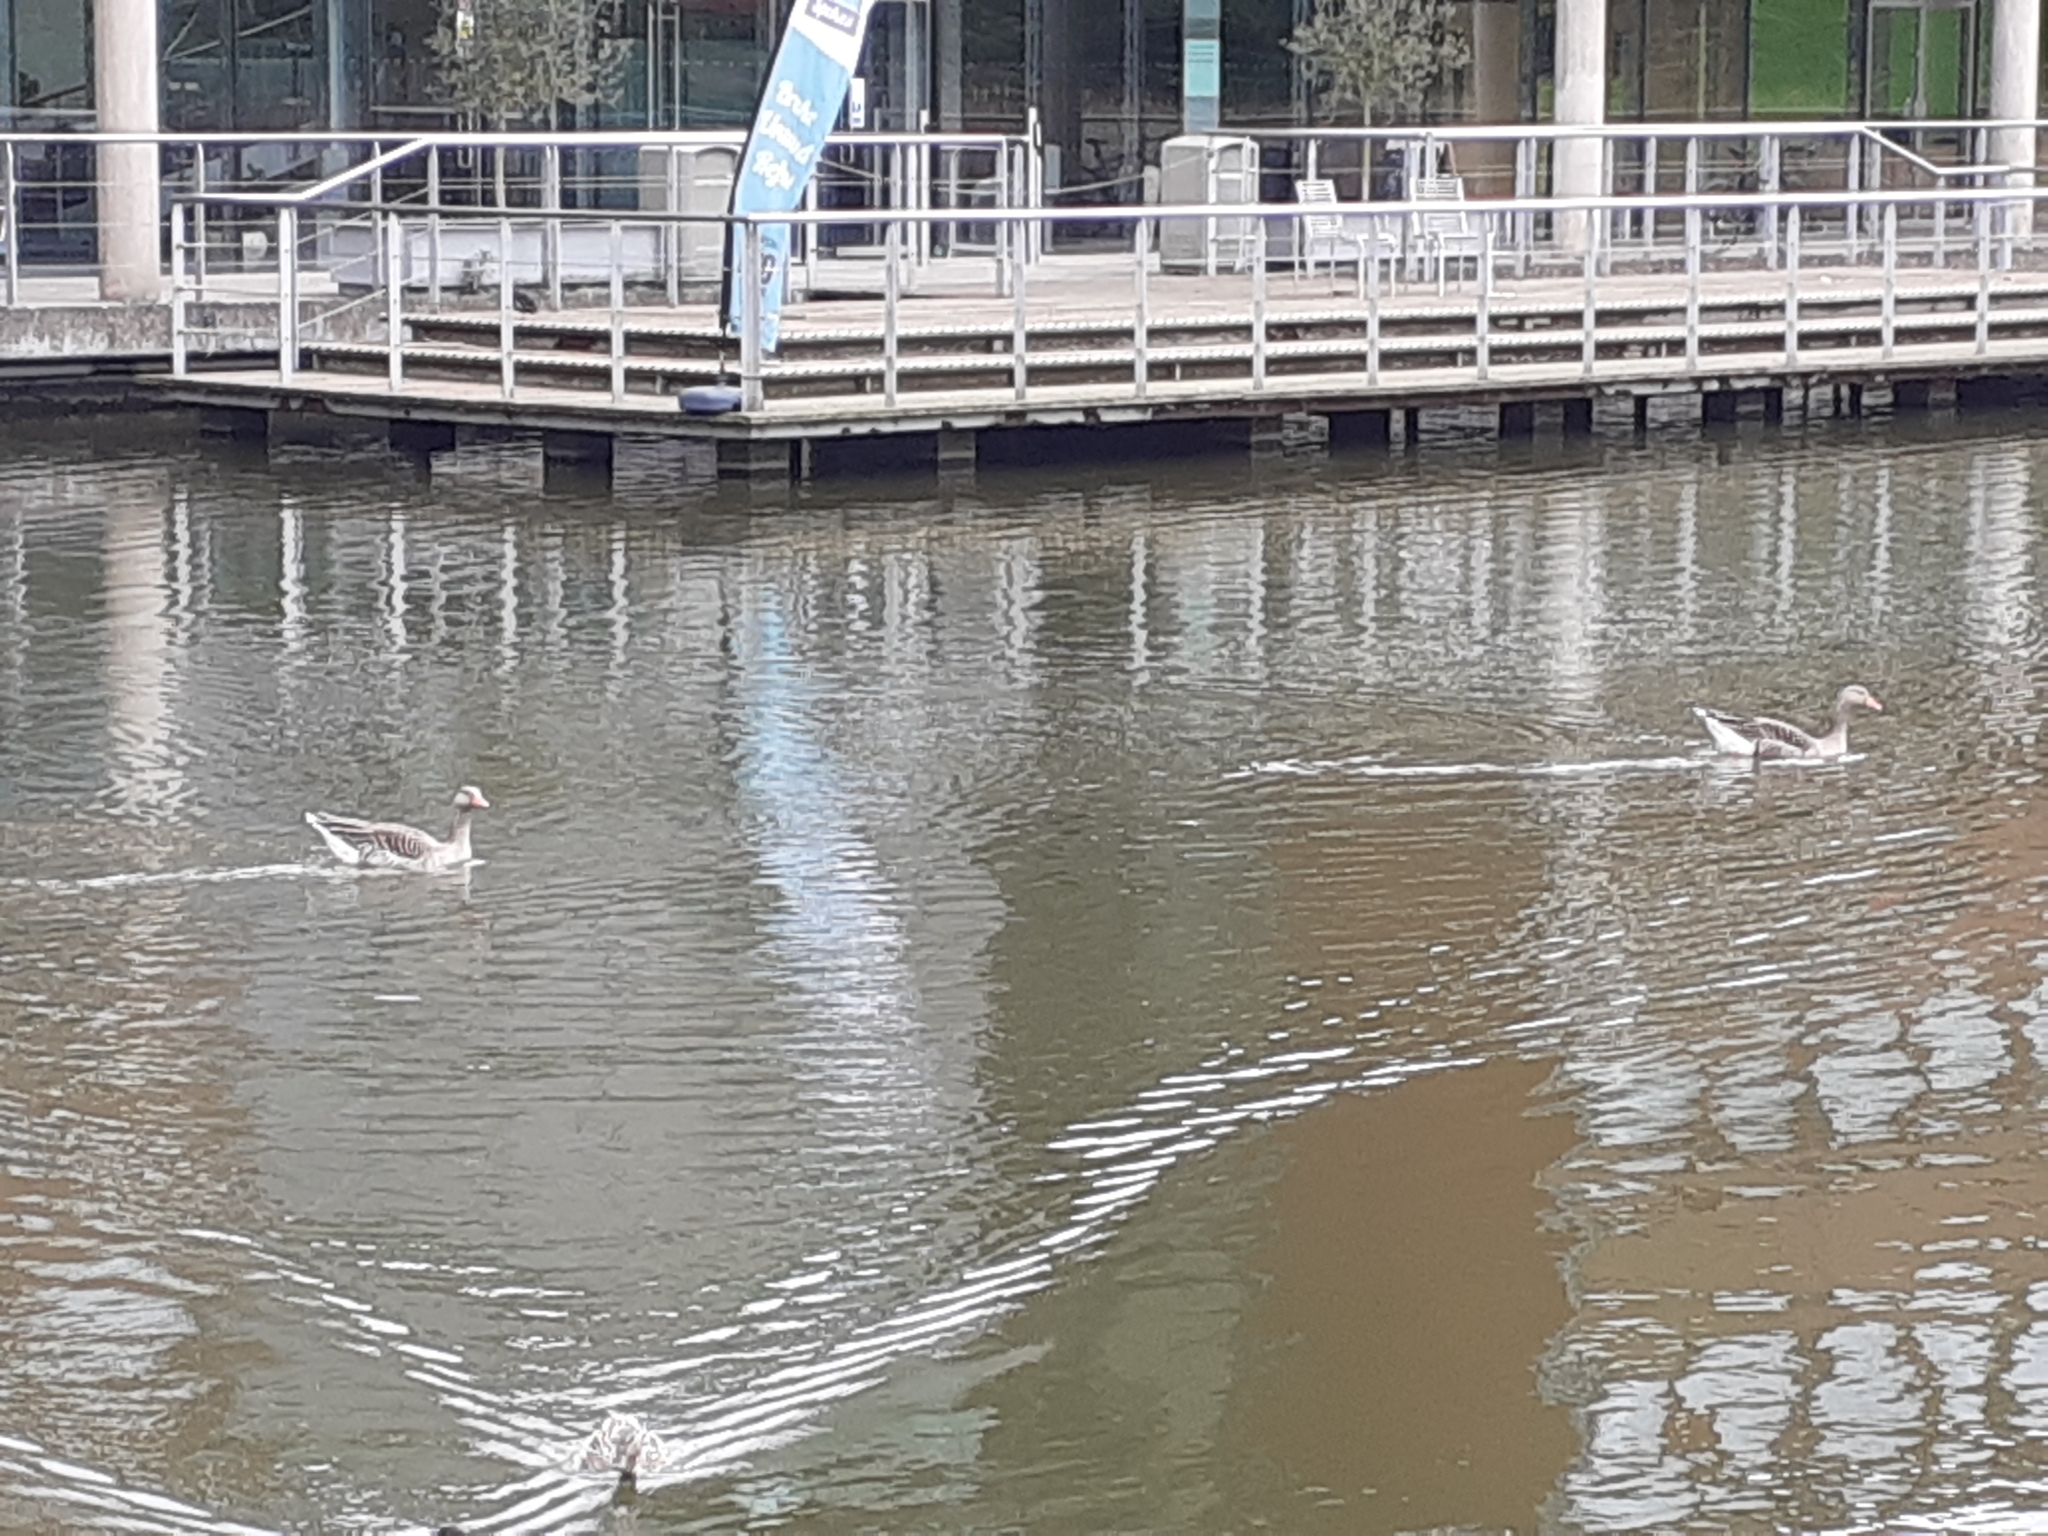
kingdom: Animalia
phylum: Chordata
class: Aves
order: Anseriformes
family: Anatidae
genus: Anser
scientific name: Anser anser
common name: Greylag goose
